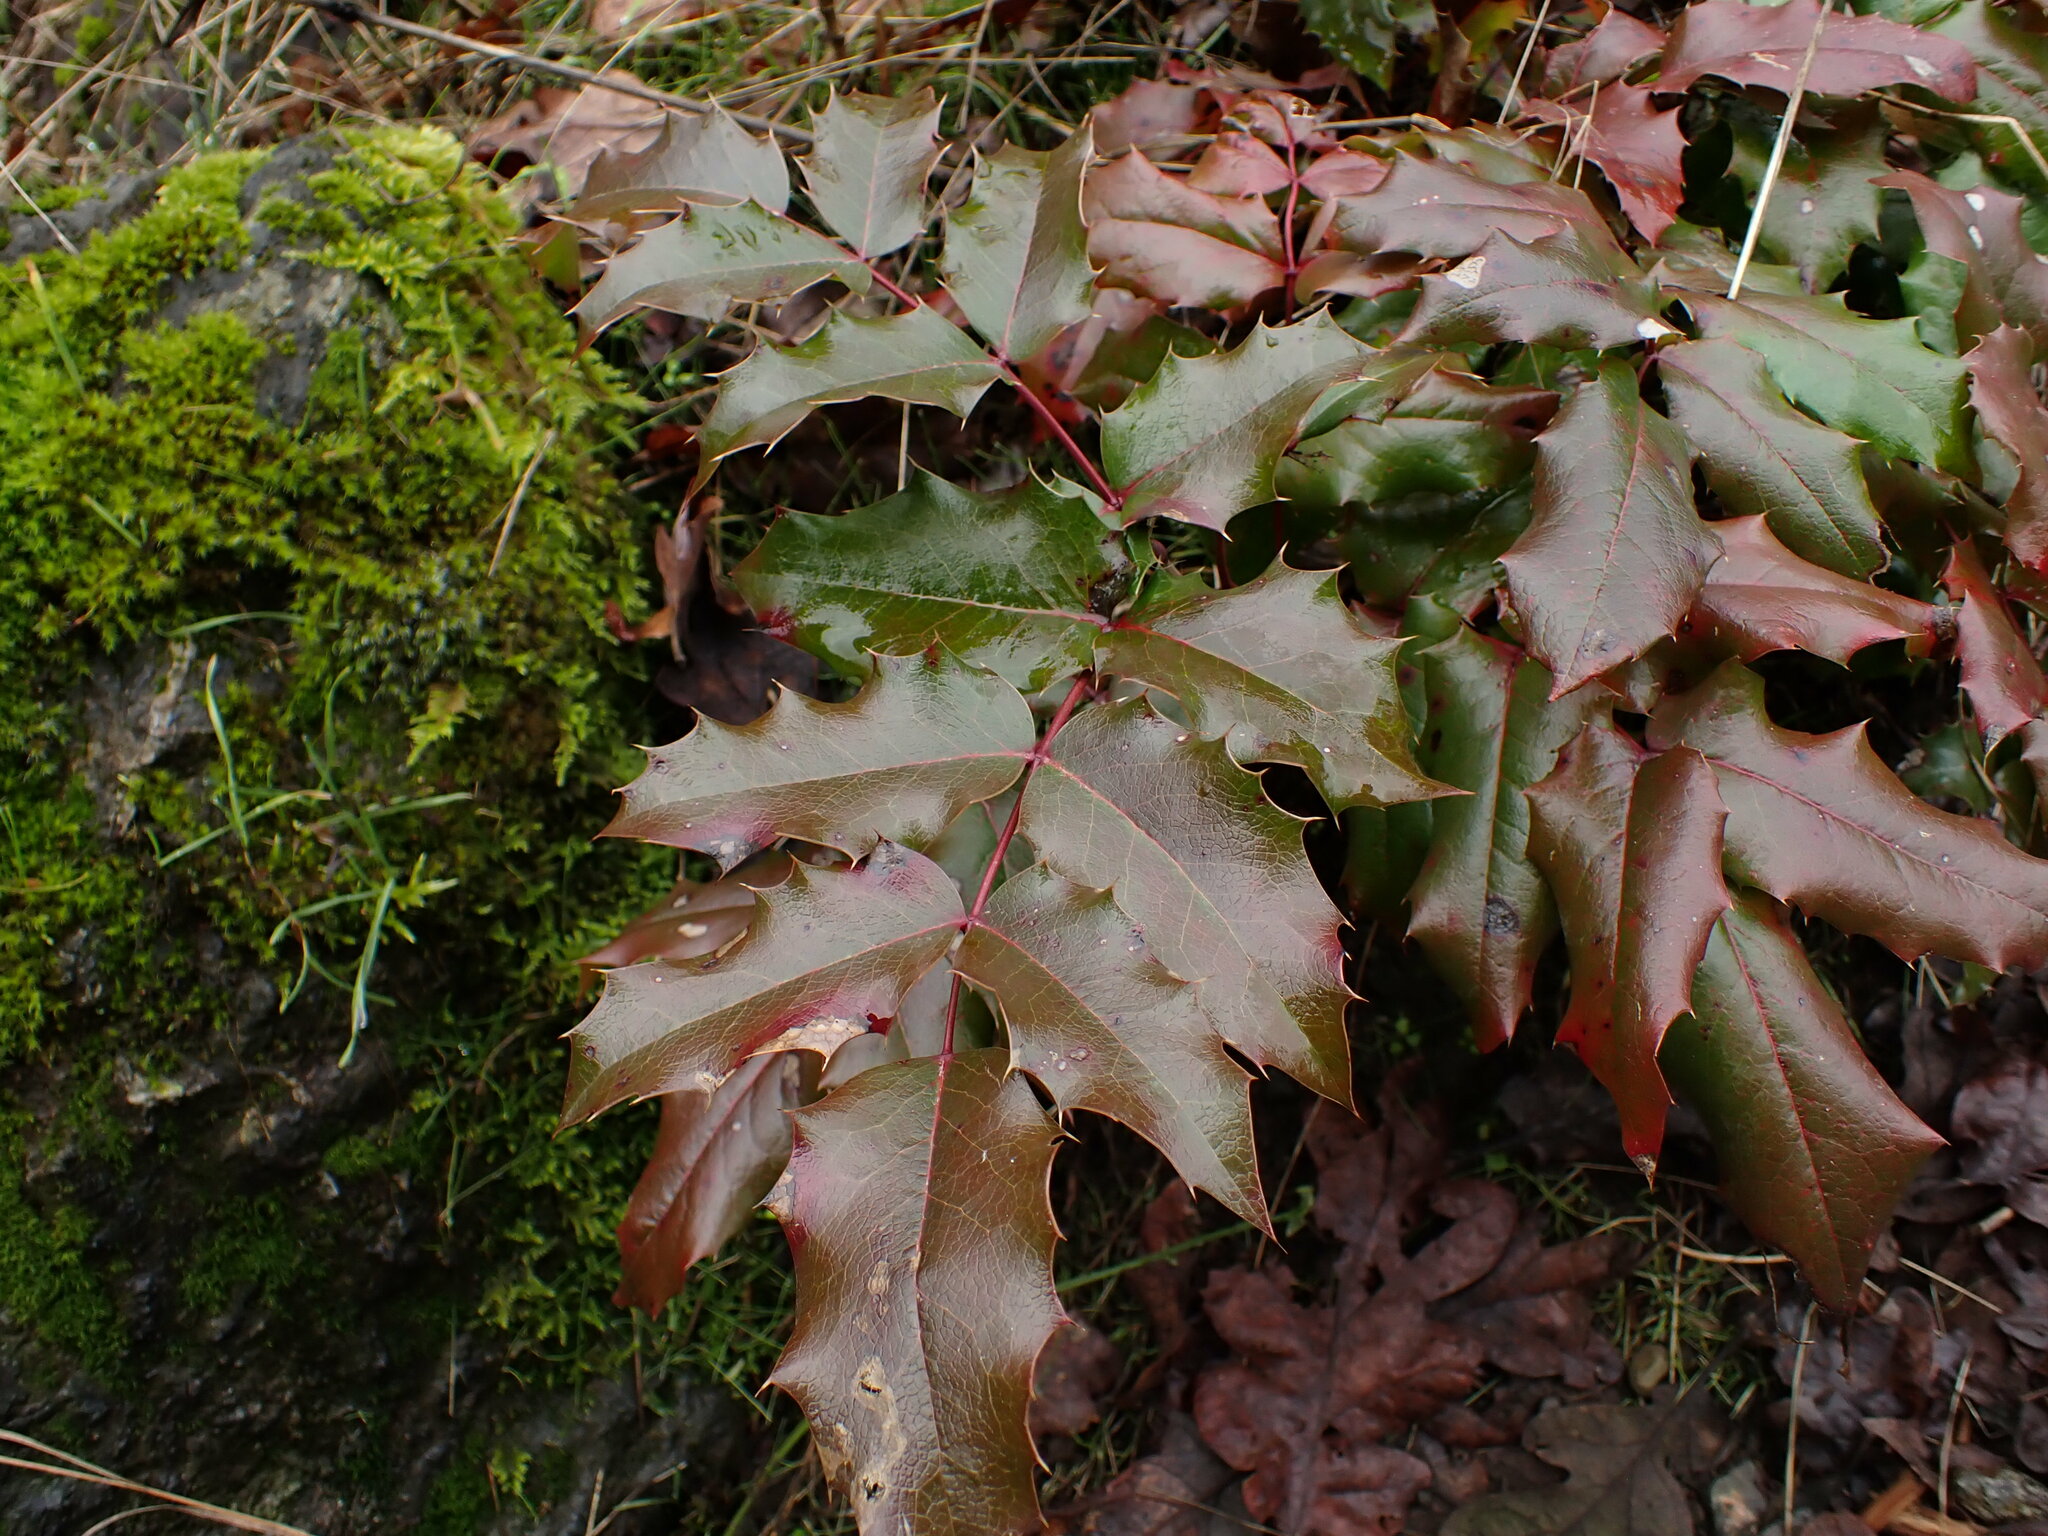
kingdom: Plantae
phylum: Tracheophyta
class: Magnoliopsida
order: Ranunculales
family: Berberidaceae
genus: Mahonia
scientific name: Mahonia aquifolium
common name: Oregon-grape
